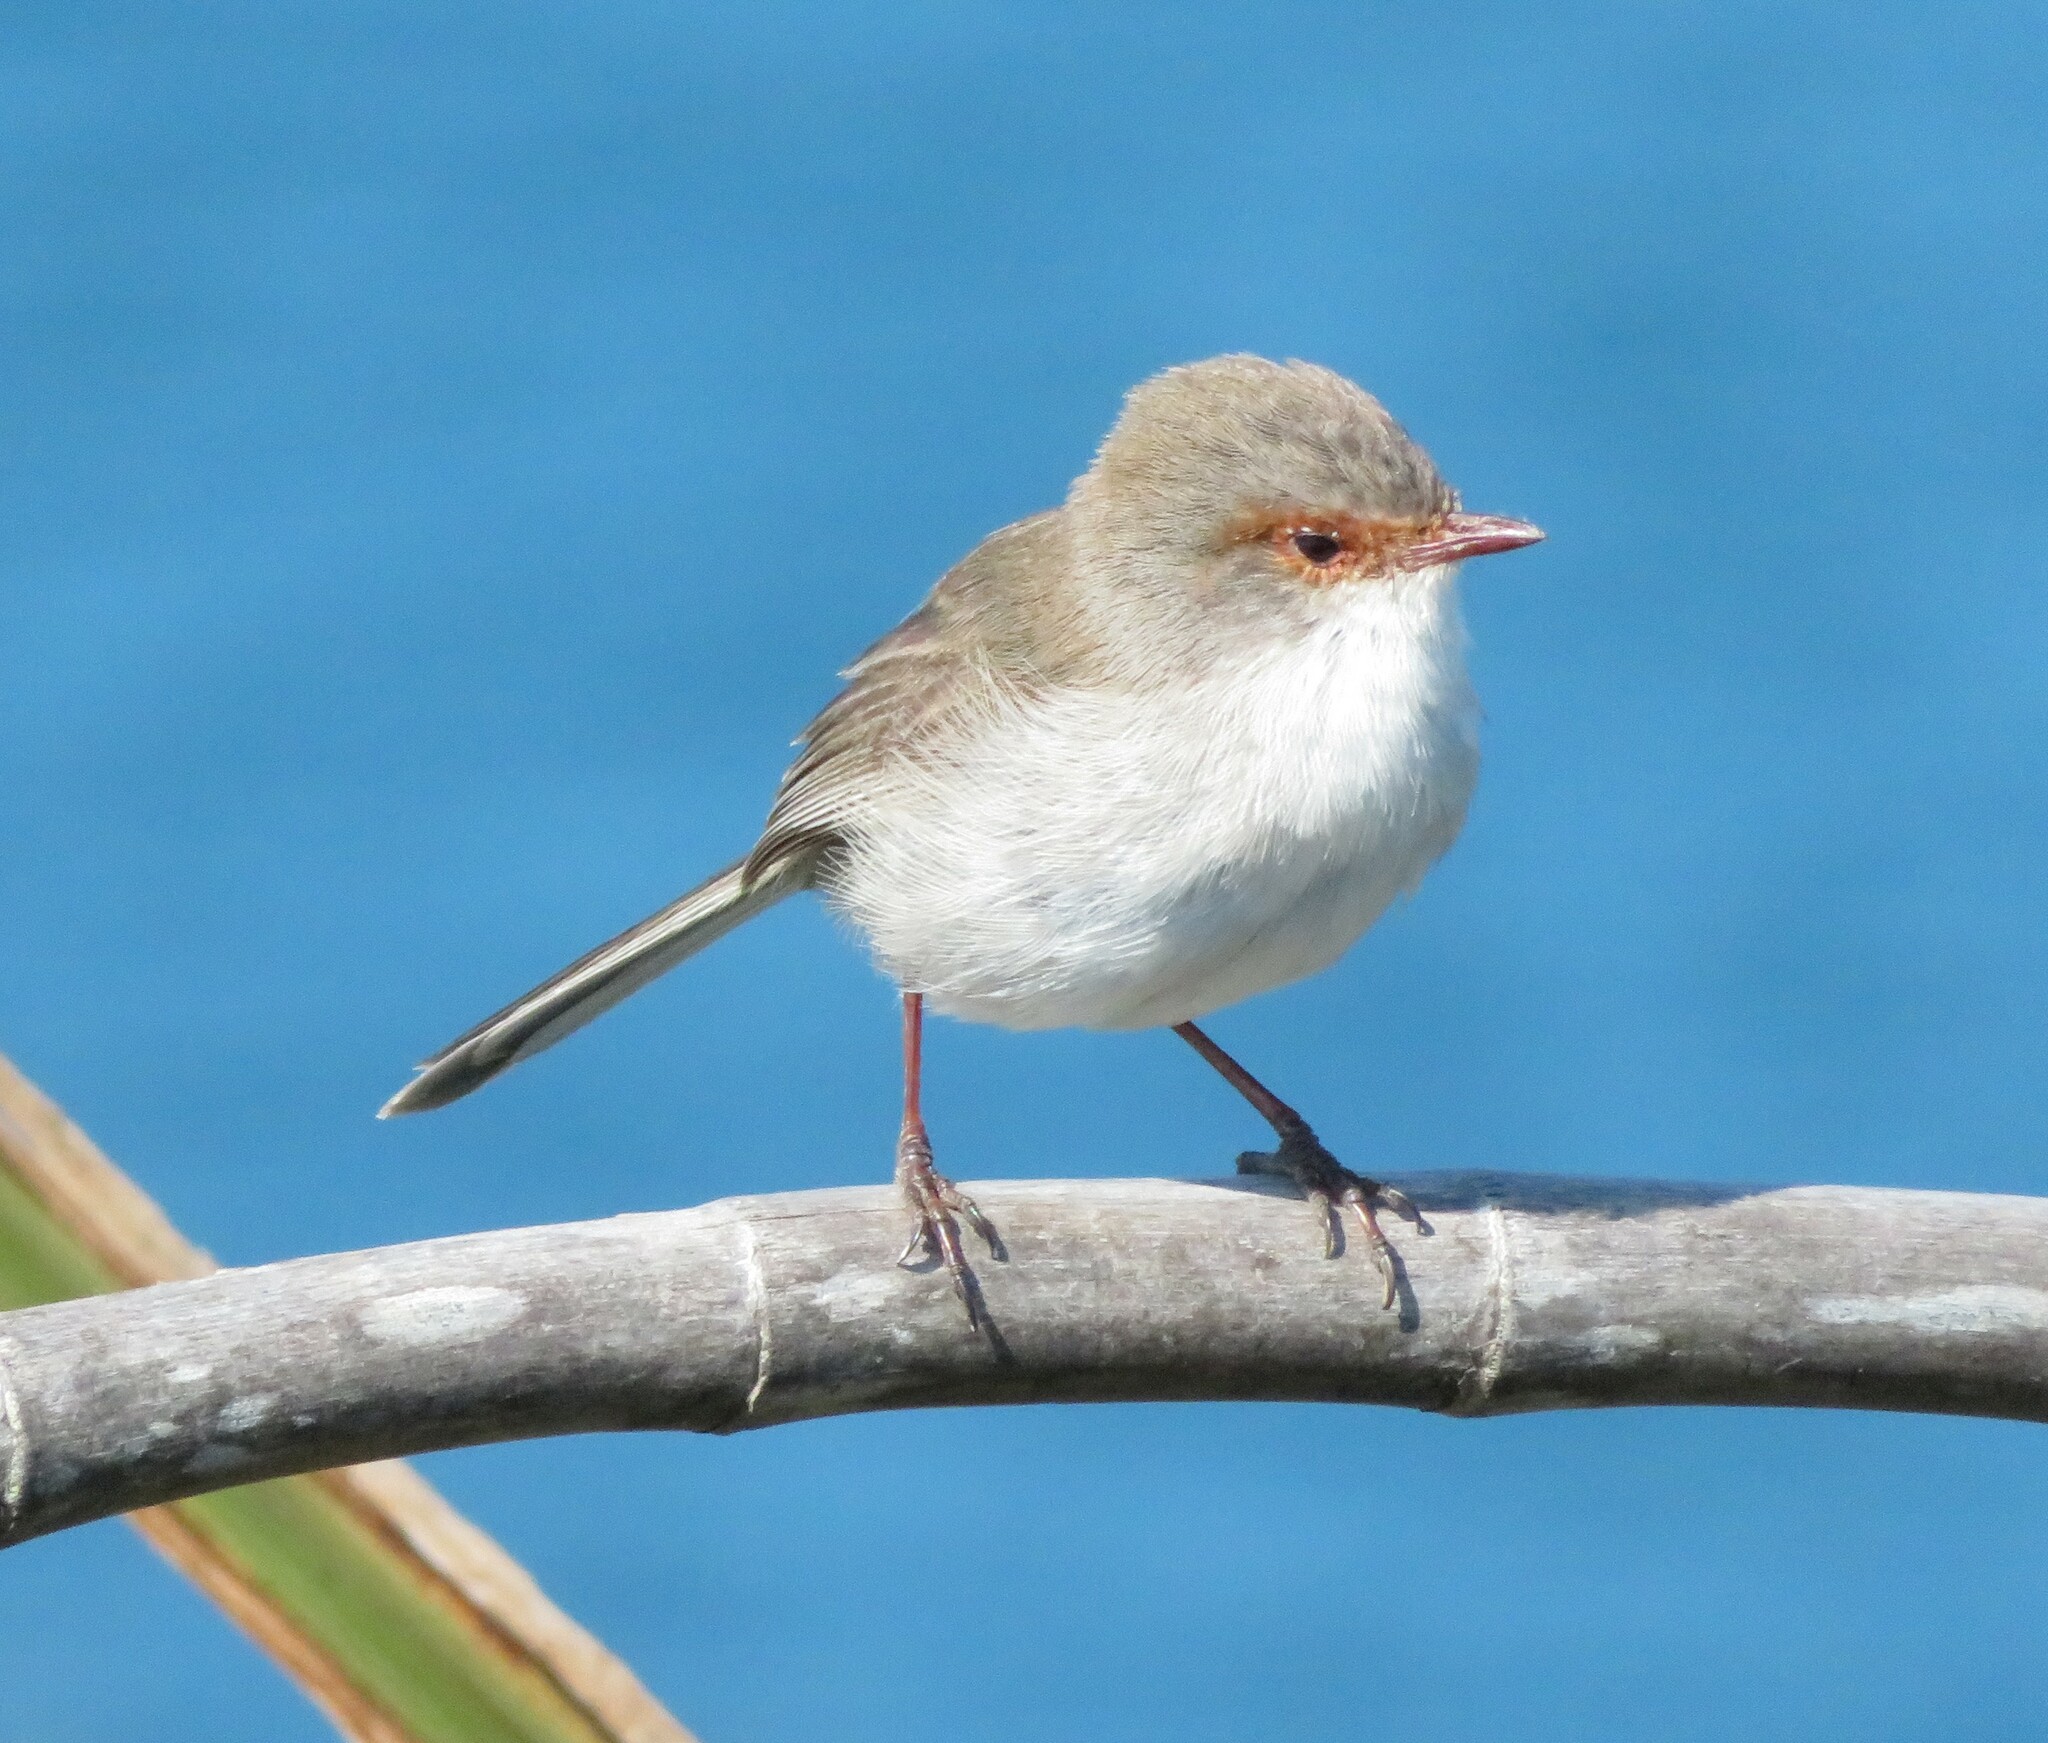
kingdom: Animalia
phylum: Chordata
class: Aves
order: Passeriformes
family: Maluridae
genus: Malurus
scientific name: Malurus cyaneus
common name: Superb fairywren
